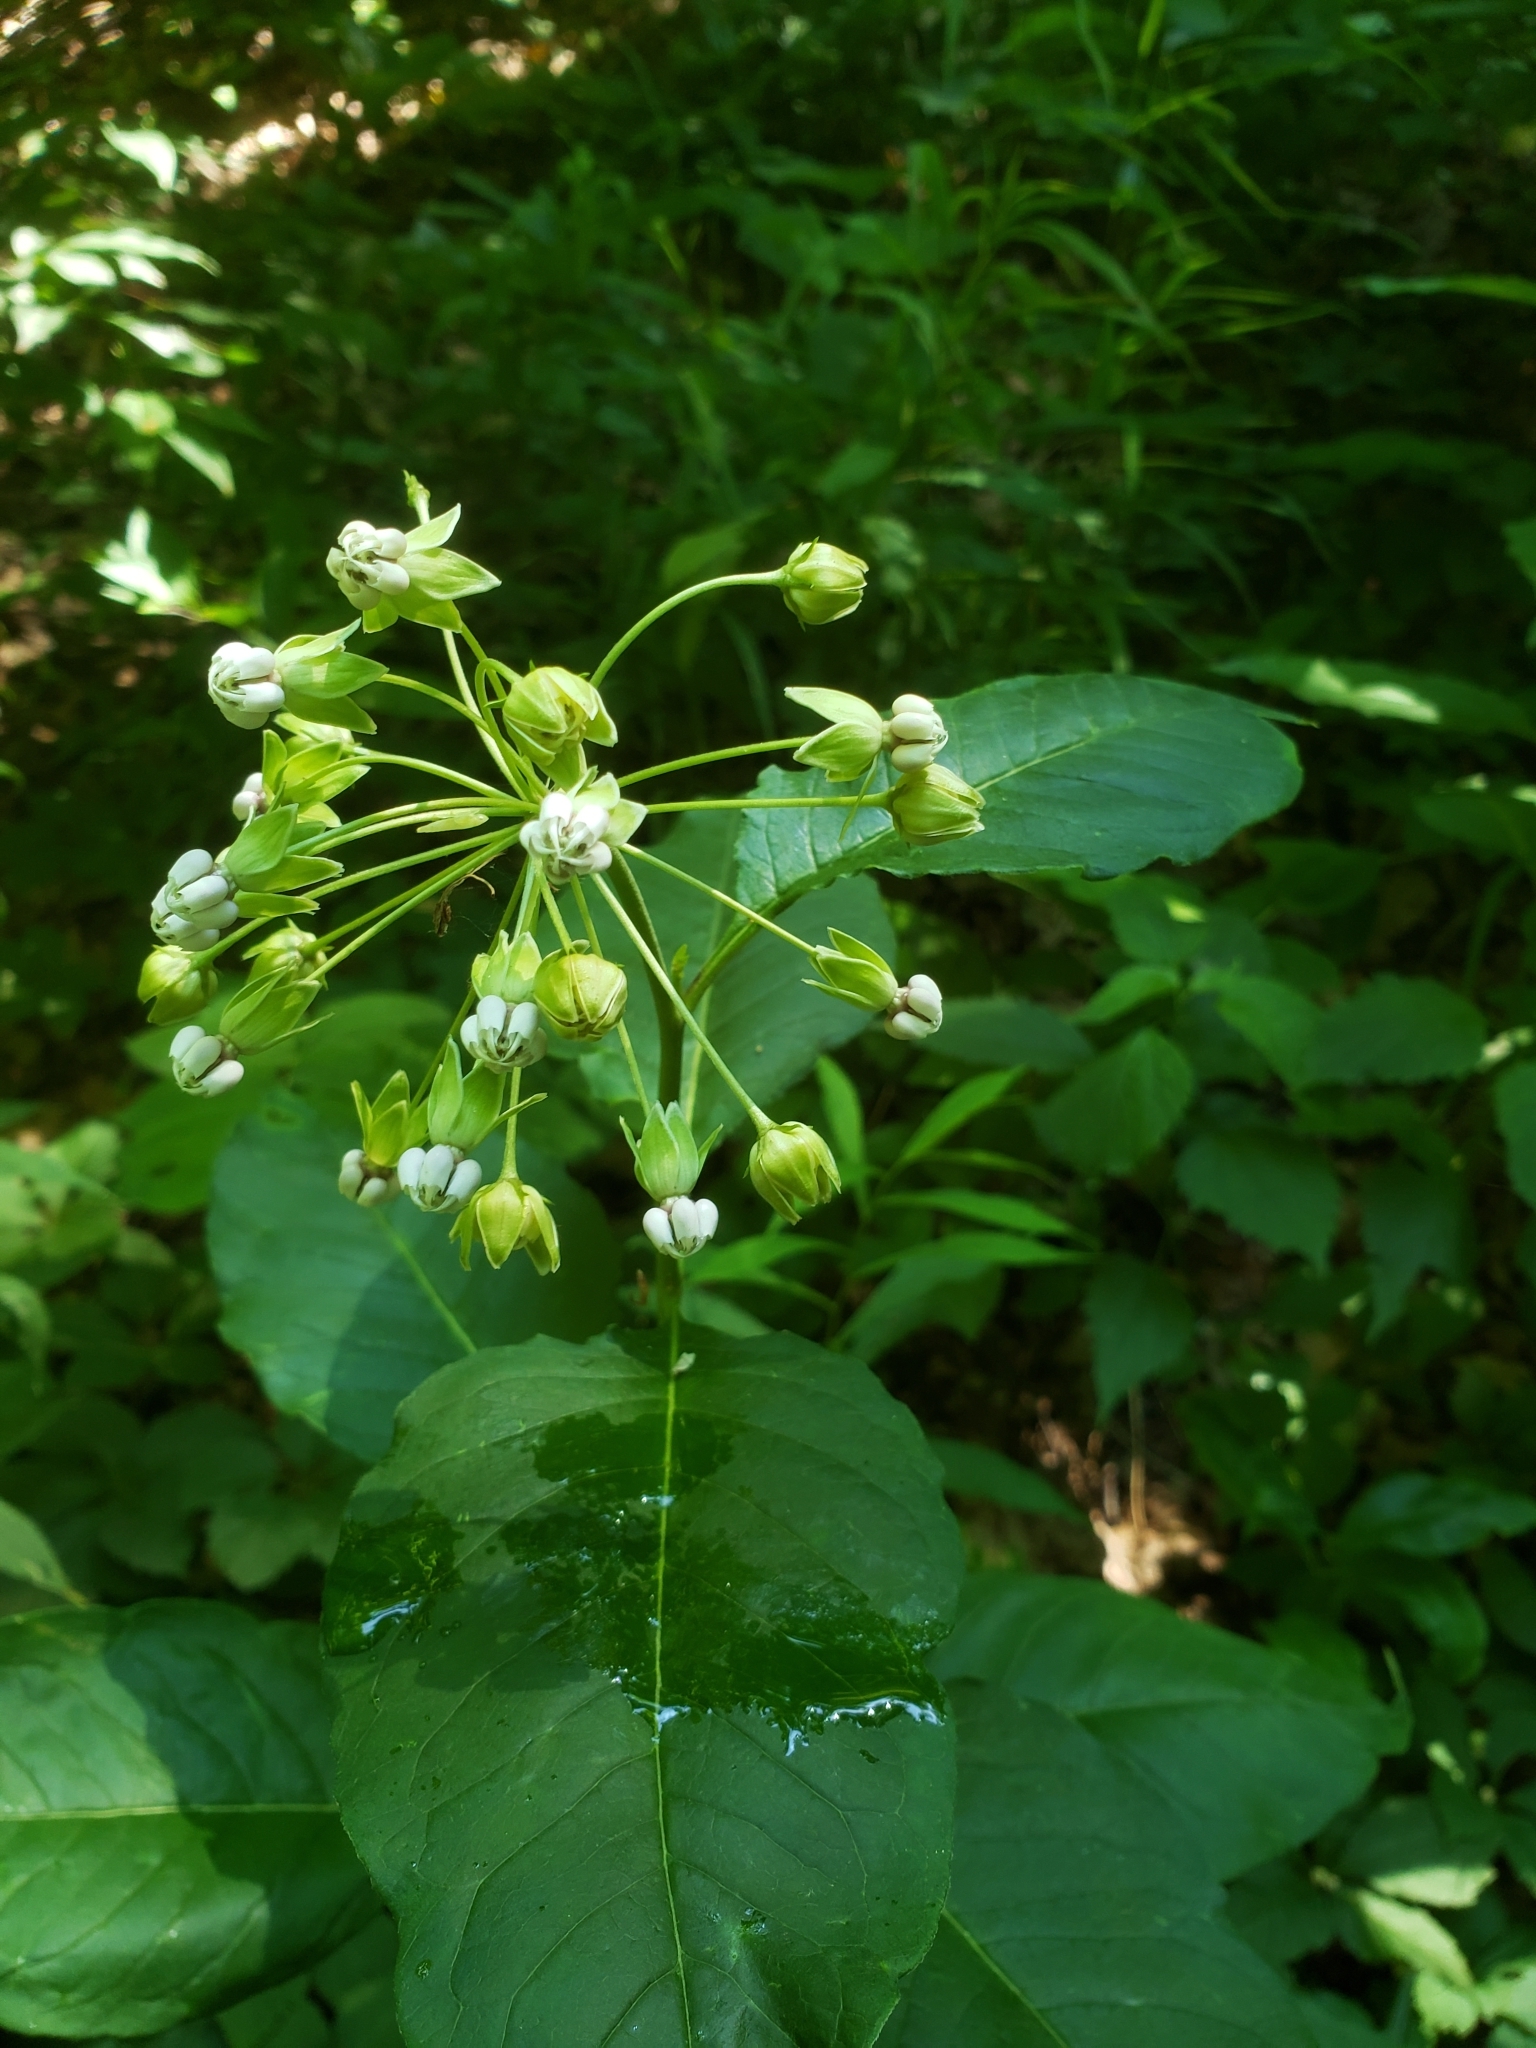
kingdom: Plantae
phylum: Tracheophyta
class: Magnoliopsida
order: Gentianales
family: Apocynaceae
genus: Asclepias
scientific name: Asclepias exaltata
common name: Poke milkweed
